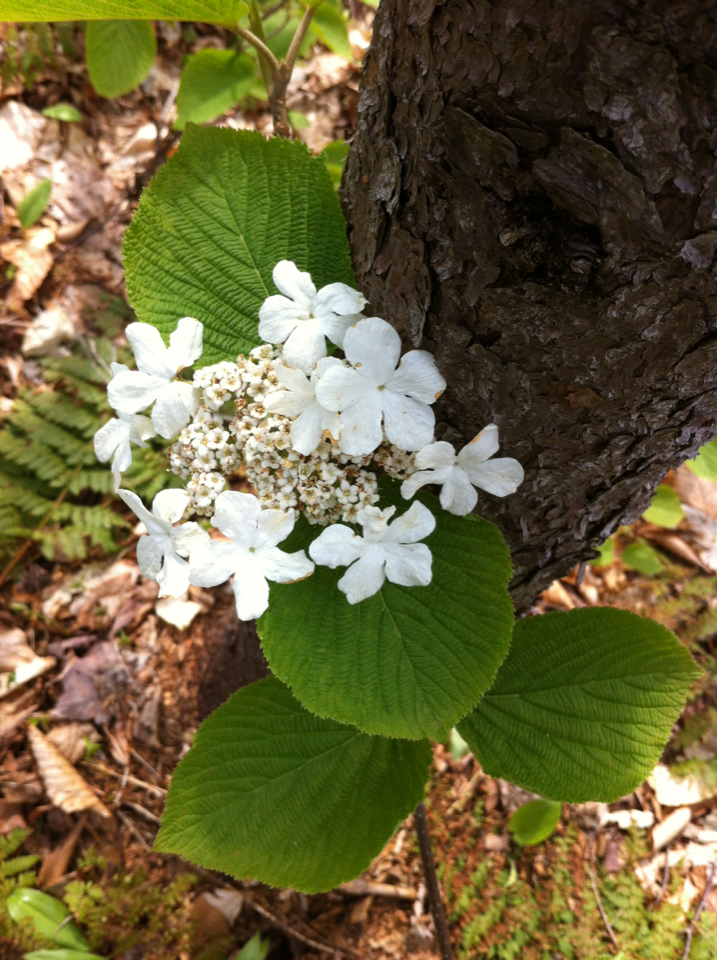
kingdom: Plantae
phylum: Tracheophyta
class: Magnoliopsida
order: Dipsacales
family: Viburnaceae
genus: Viburnum
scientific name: Viburnum lantanoides
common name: Hobblebush
